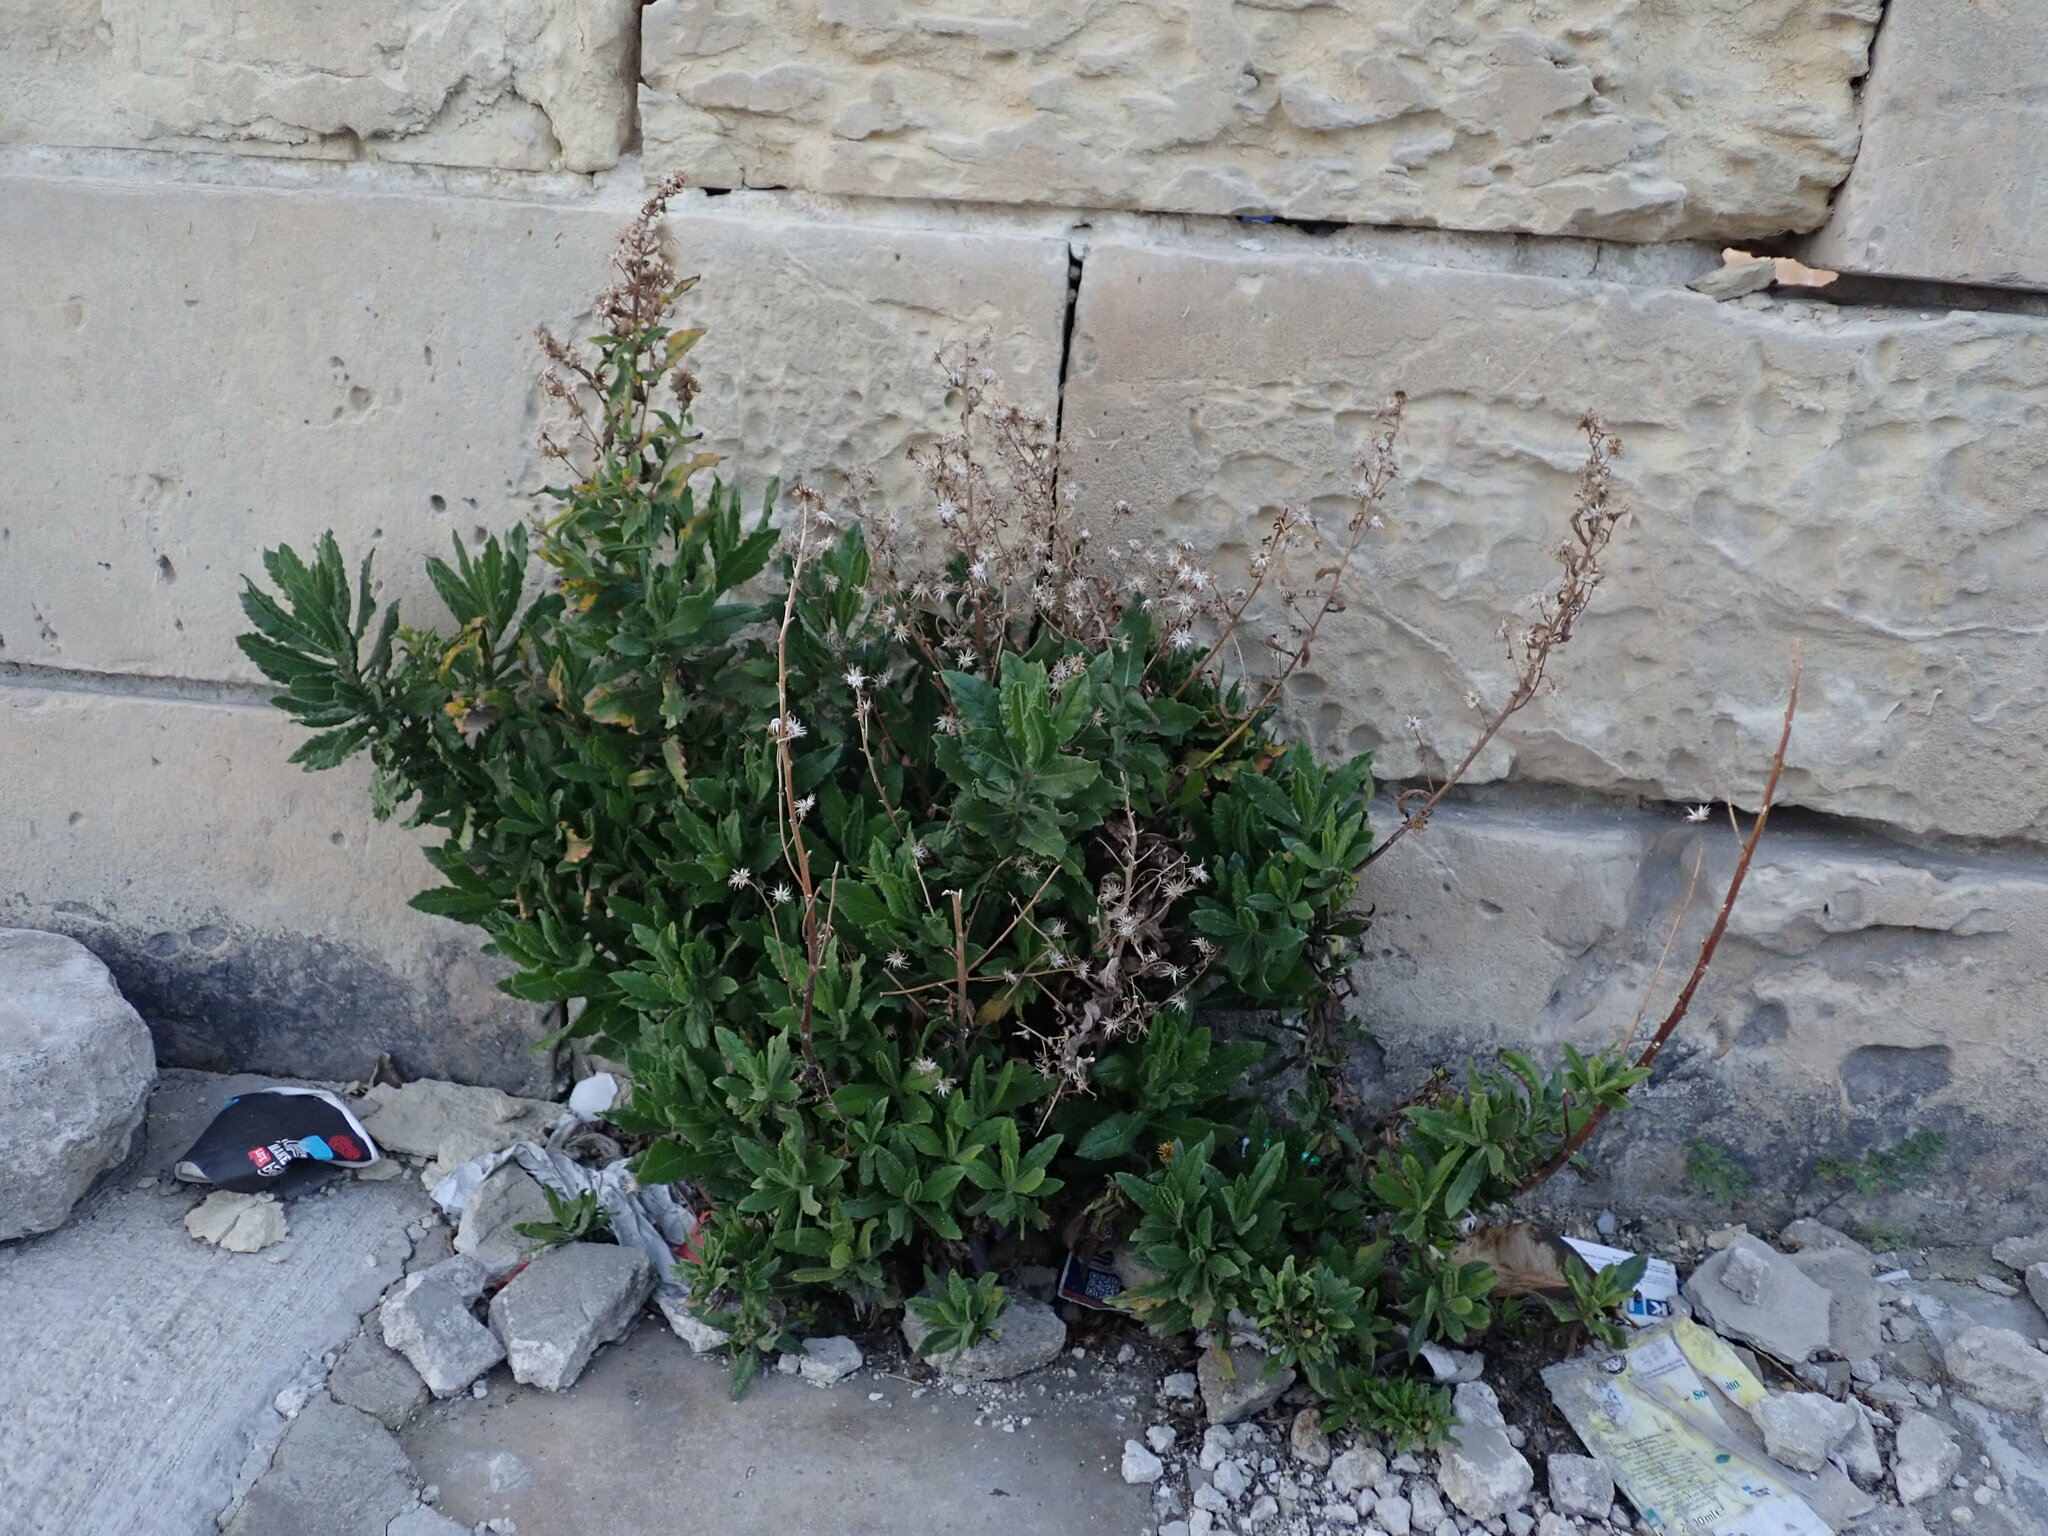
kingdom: Plantae
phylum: Tracheophyta
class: Magnoliopsida
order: Asterales
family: Asteraceae
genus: Dittrichia
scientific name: Dittrichia viscosa
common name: Woody fleabane
